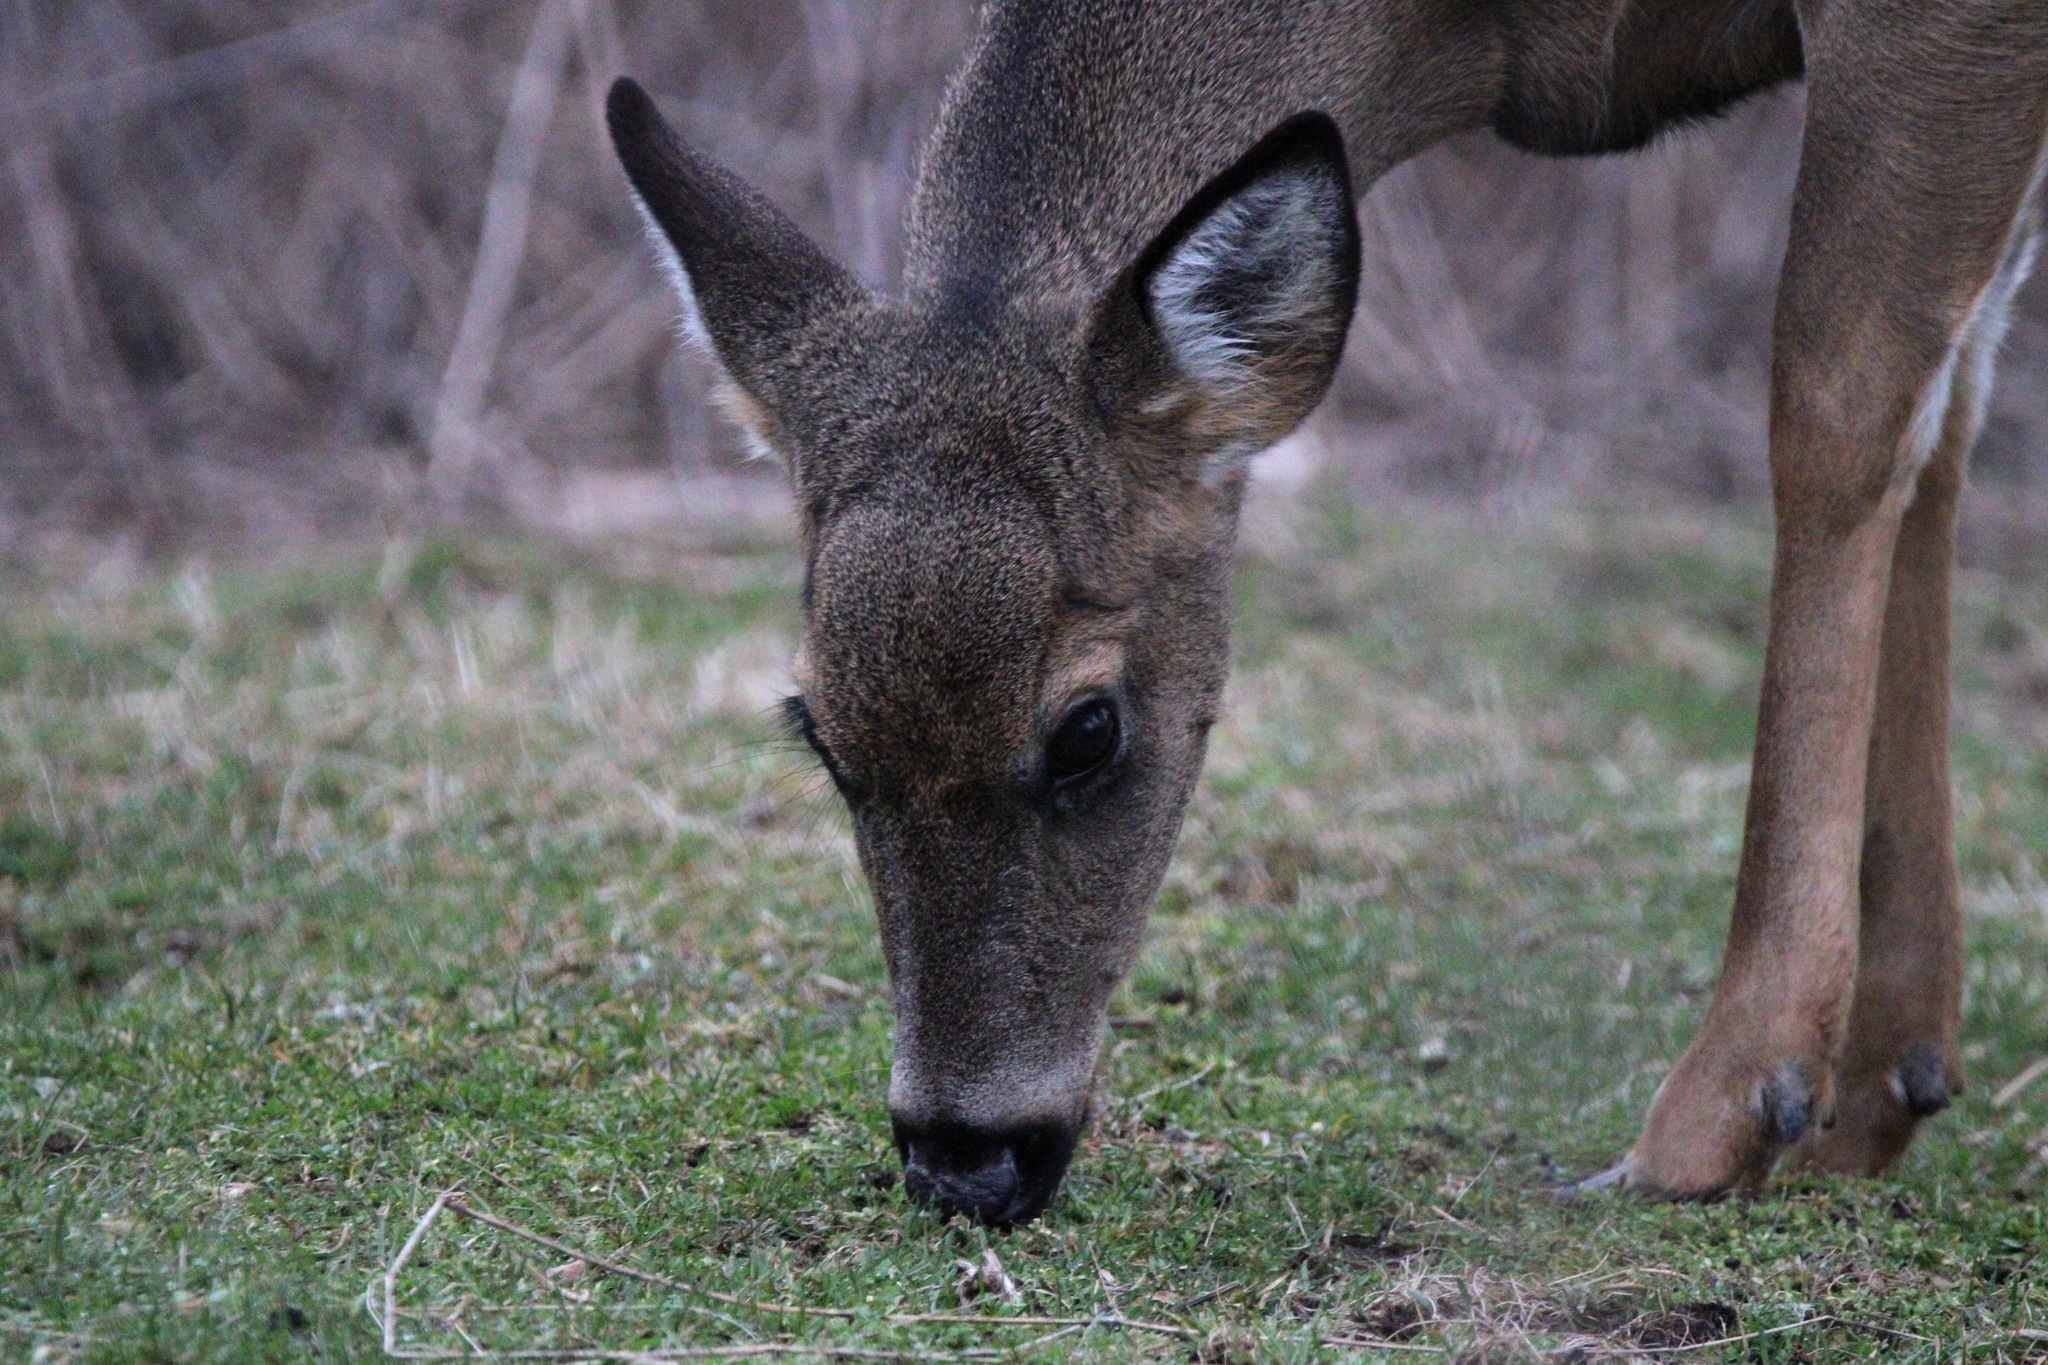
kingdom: Animalia
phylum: Chordata
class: Mammalia
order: Artiodactyla
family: Cervidae
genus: Odocoileus
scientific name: Odocoileus virginianus
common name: White-tailed deer
